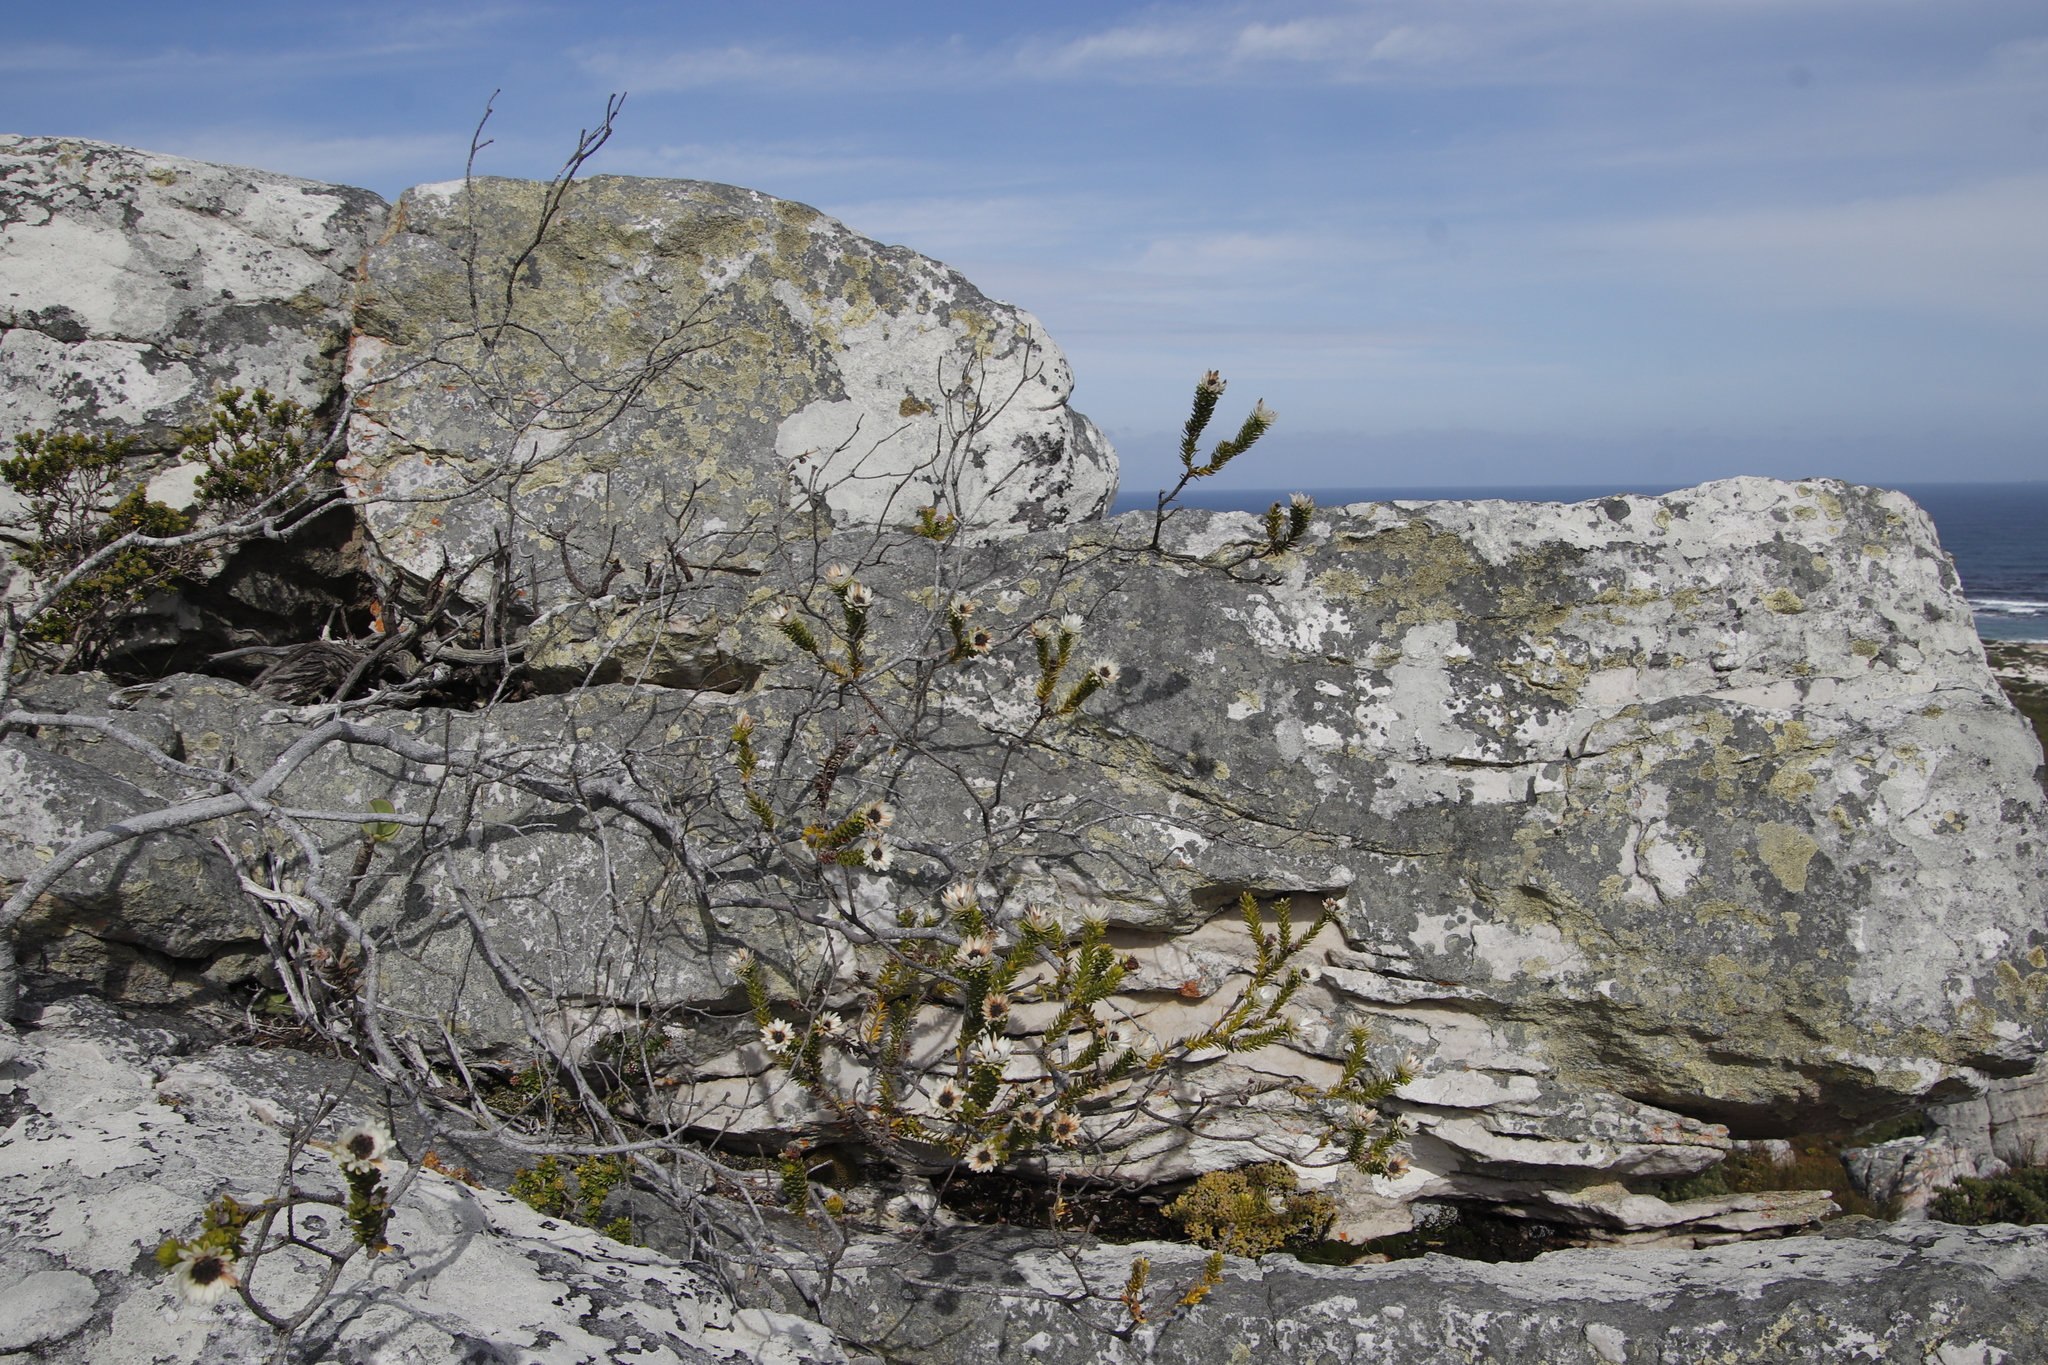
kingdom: Plantae
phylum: Tracheophyta
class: Magnoliopsida
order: Bruniales
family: Bruniaceae
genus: Staavia
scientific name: Staavia dodii
